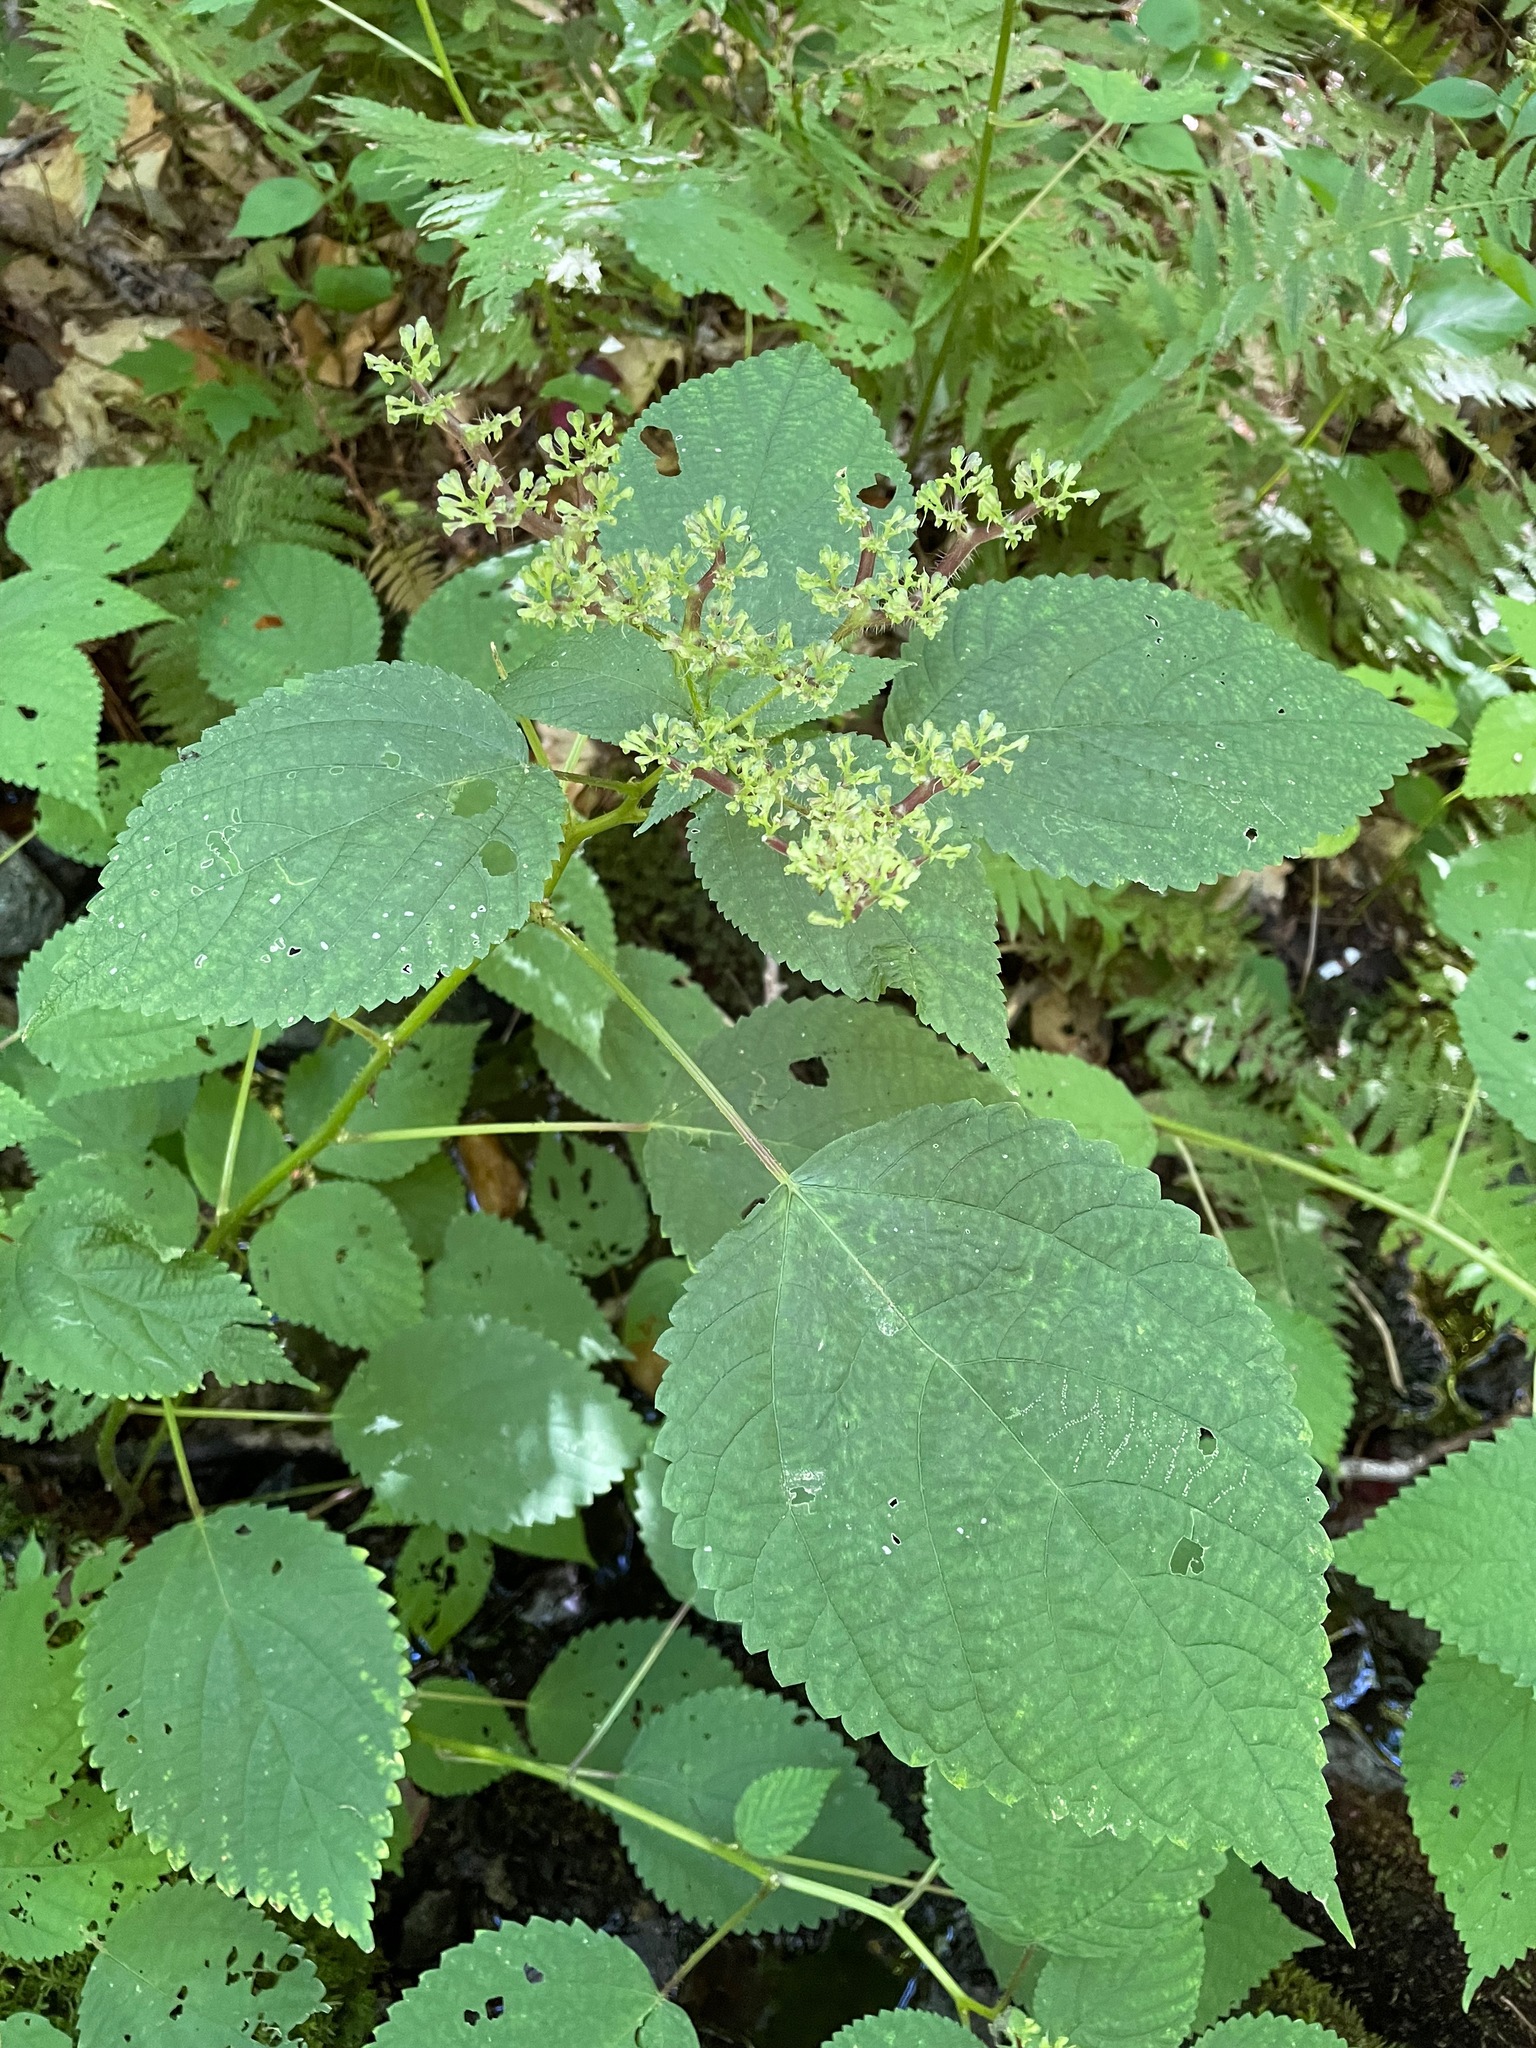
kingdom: Plantae
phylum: Tracheophyta
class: Magnoliopsida
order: Rosales
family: Urticaceae
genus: Laportea
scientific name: Laportea canadensis
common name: Canada nettle
